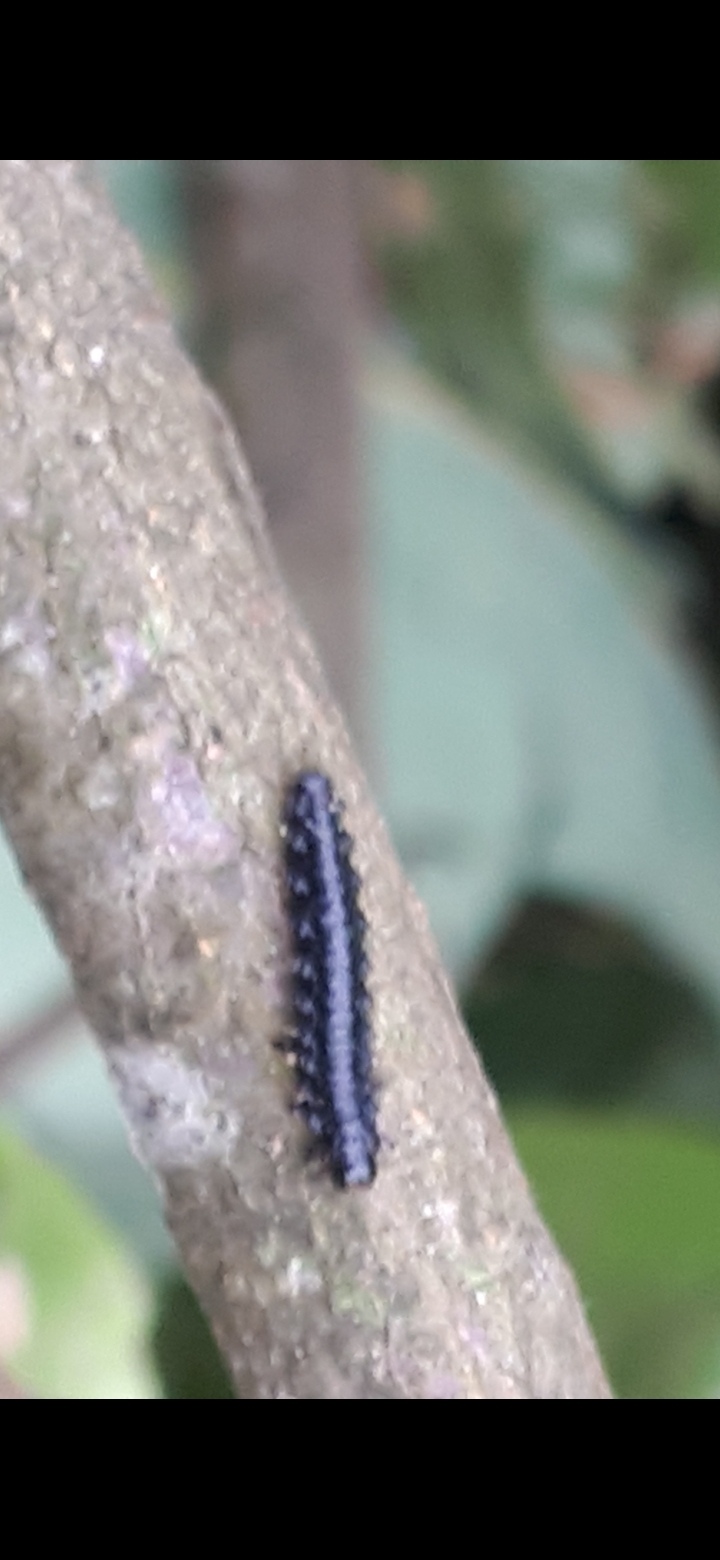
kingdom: Animalia
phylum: Arthropoda
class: Insecta
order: Coleoptera
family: Chrysomelidae
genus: Agelastica
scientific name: Agelastica alni
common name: Alder leaf beetle
